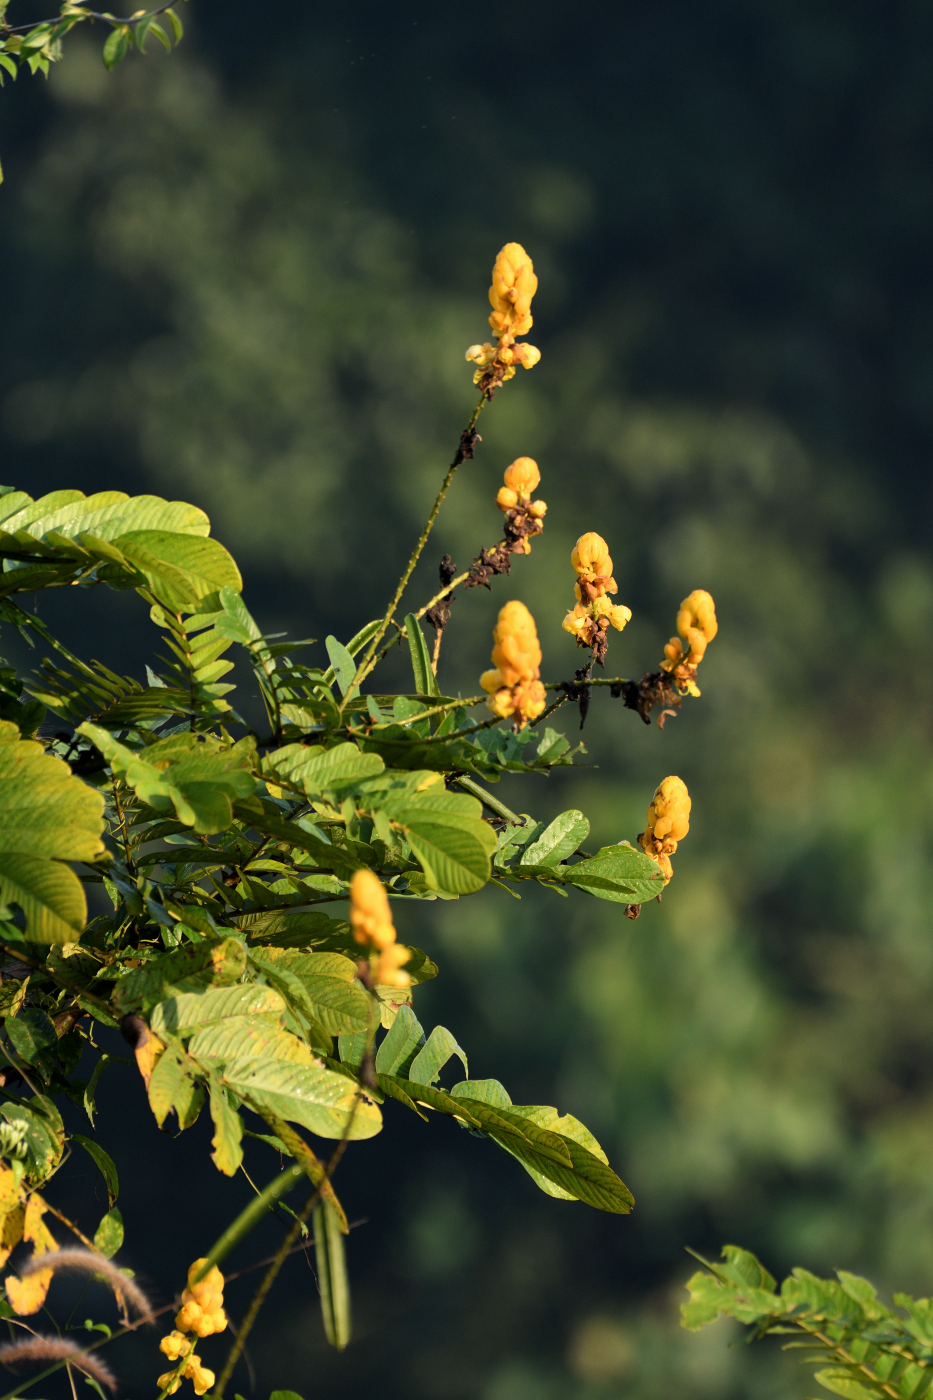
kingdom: Plantae
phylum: Tracheophyta
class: Magnoliopsida
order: Fabales
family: Fabaceae
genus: Senna
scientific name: Senna alata
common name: Emperor's candlesticks
